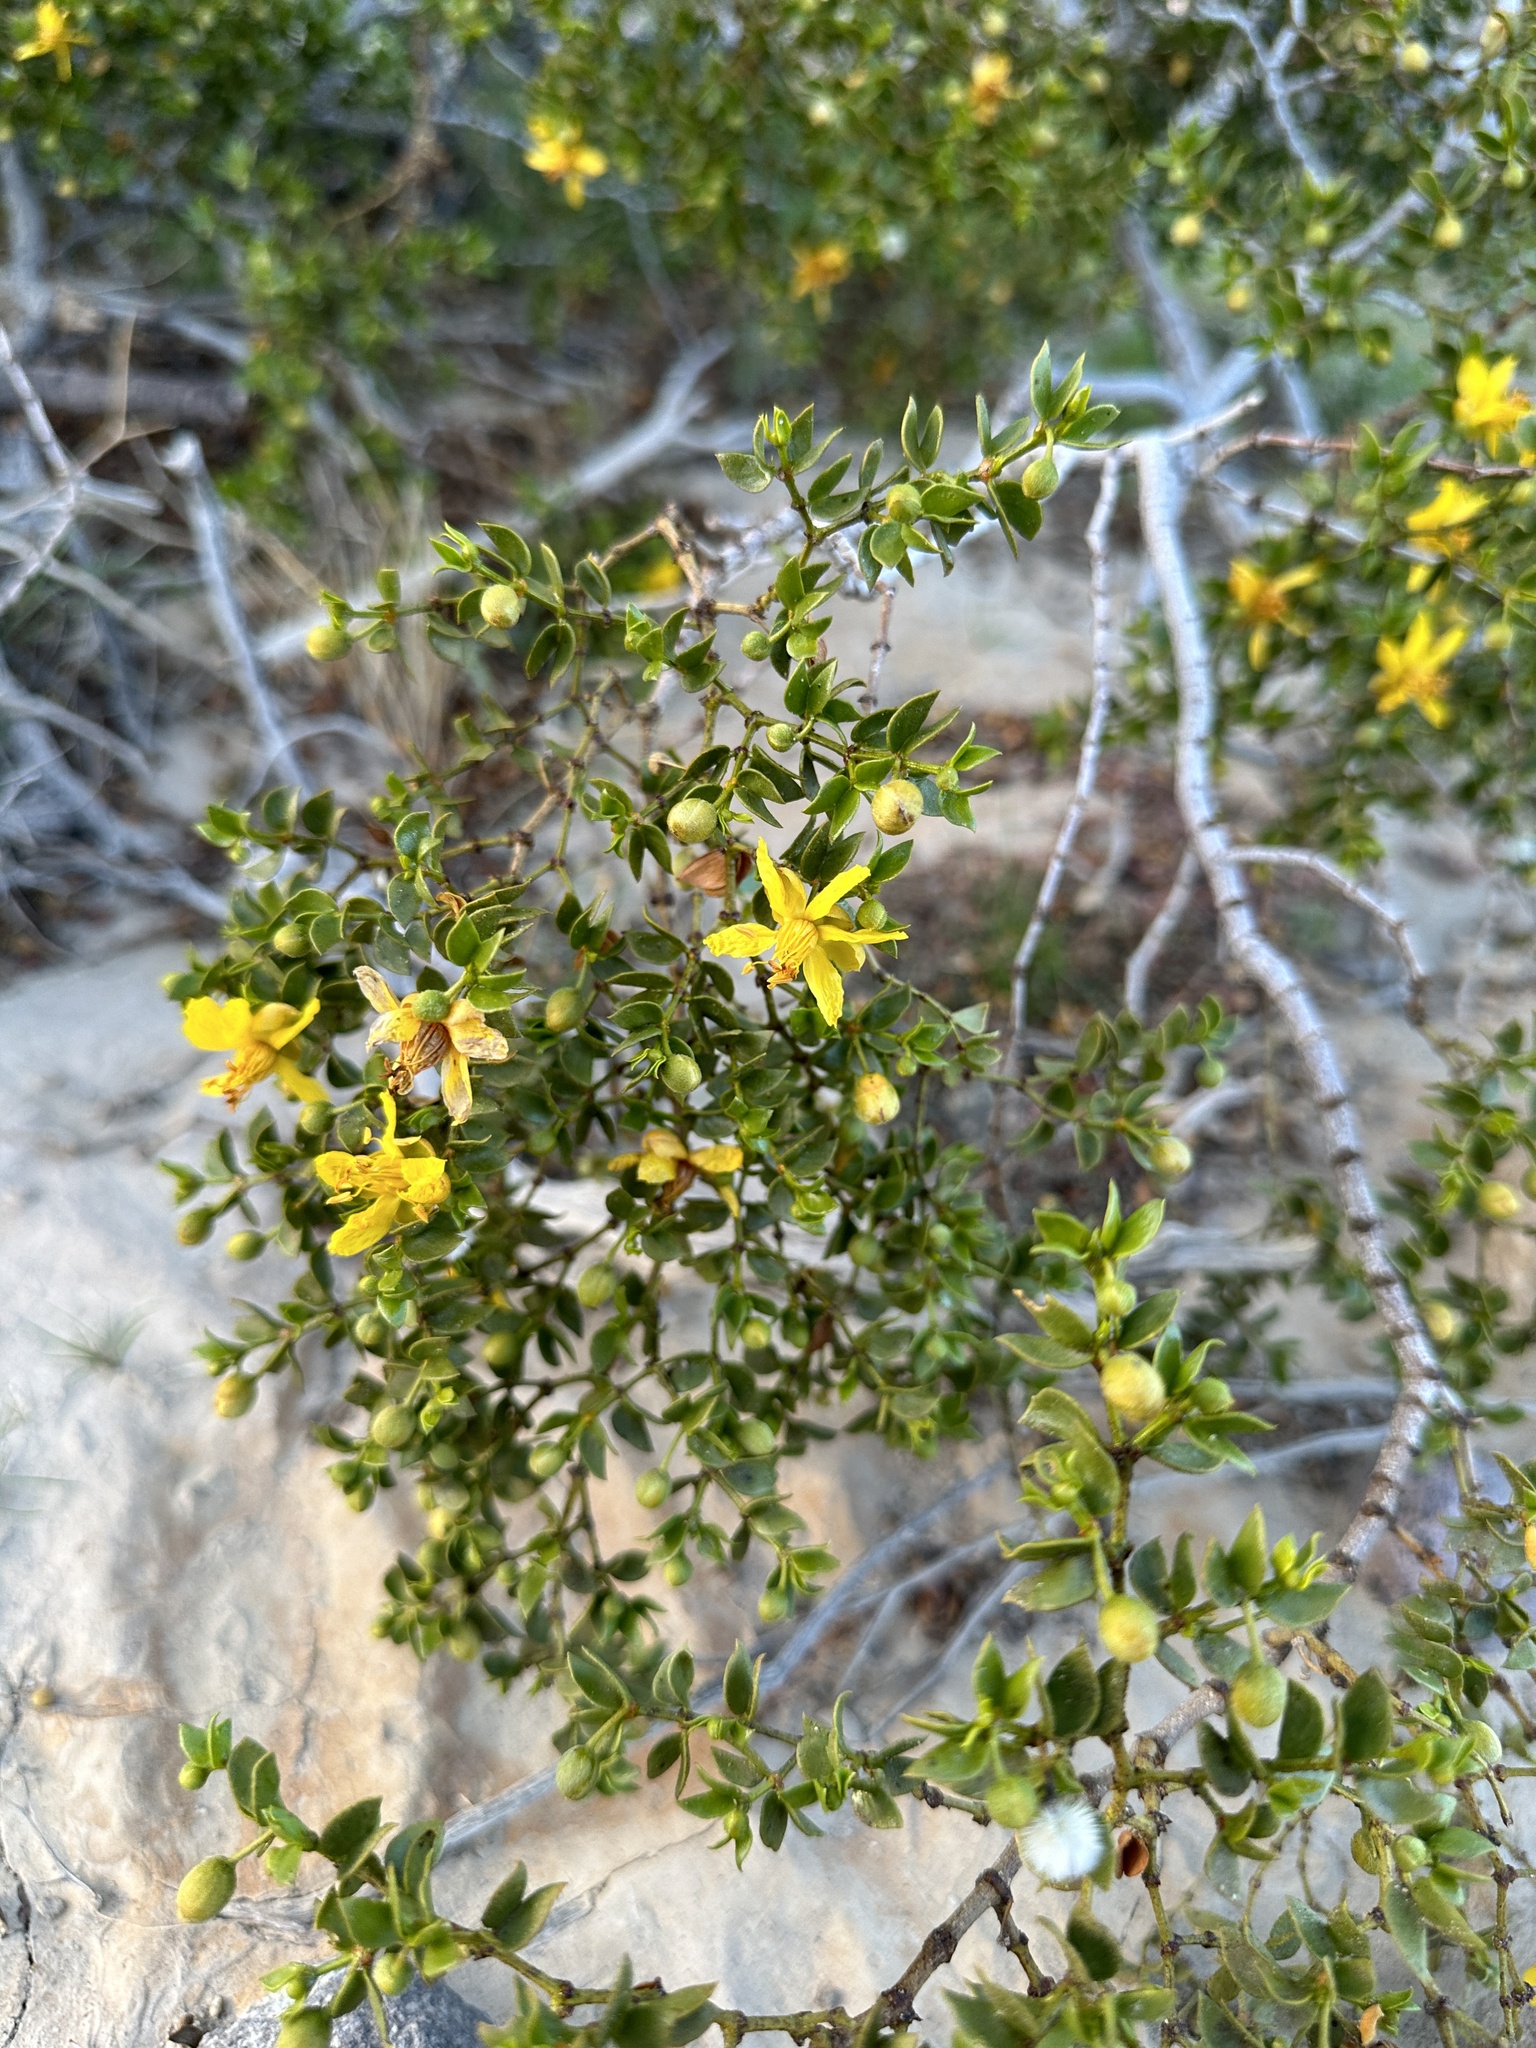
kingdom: Plantae
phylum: Tracheophyta
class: Magnoliopsida
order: Zygophyllales
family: Zygophyllaceae
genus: Larrea
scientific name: Larrea tridentata
